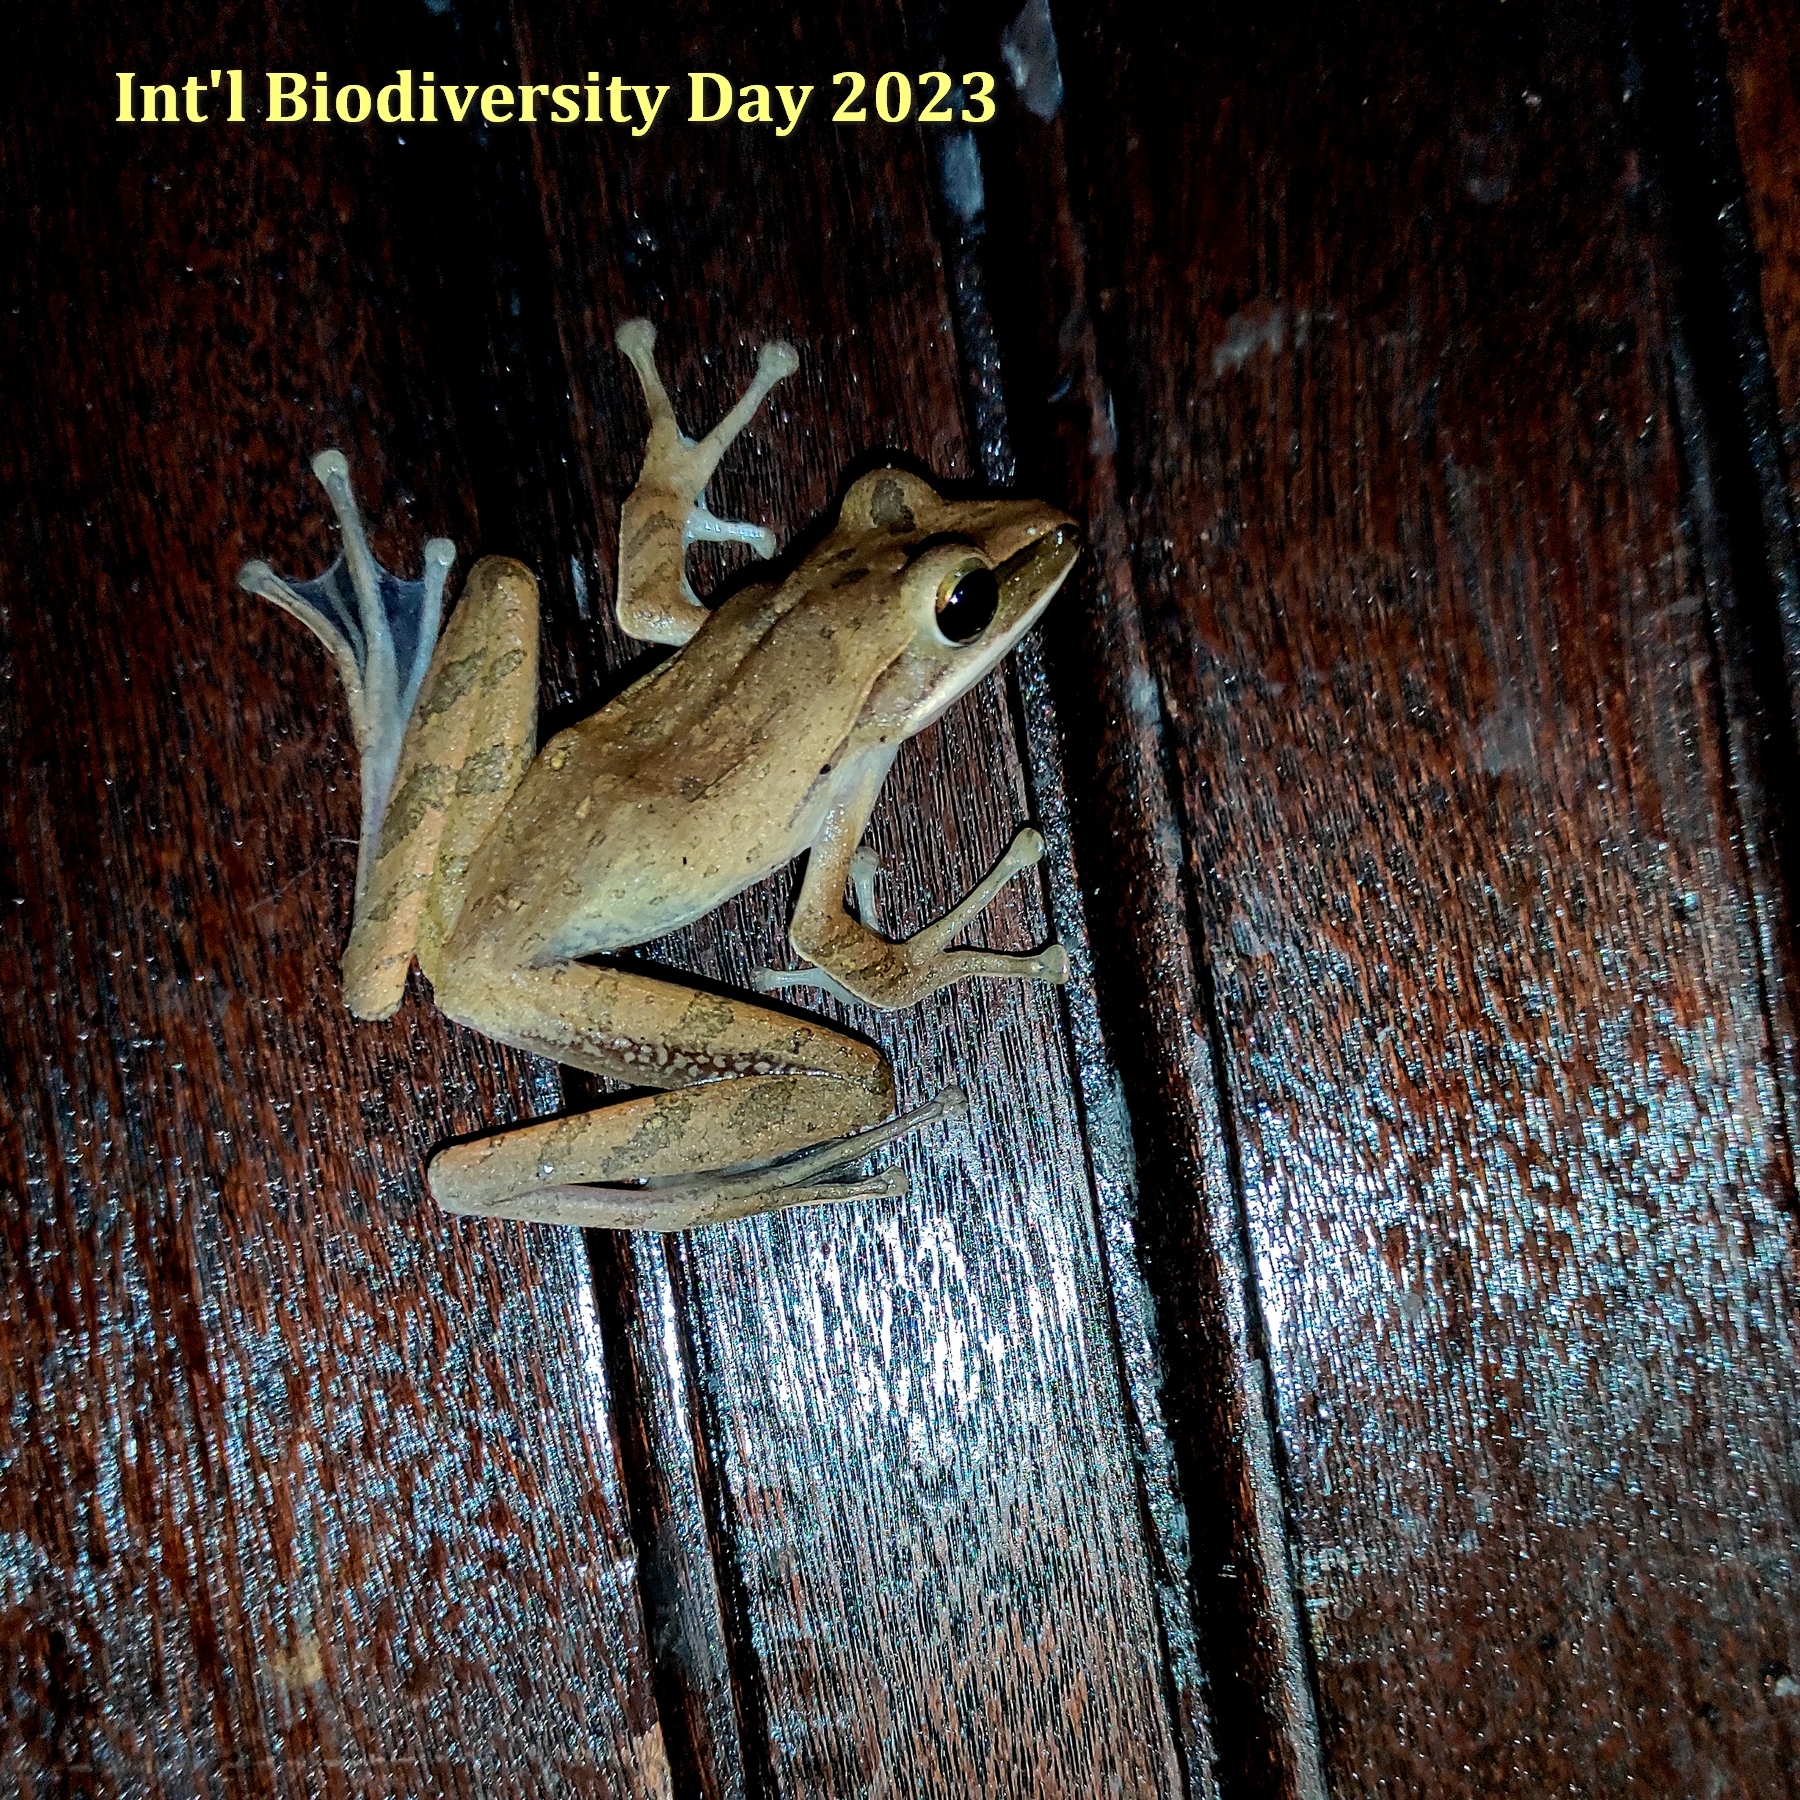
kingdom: Animalia
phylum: Chordata
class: Amphibia
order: Anura
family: Rhacophoridae
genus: Polypedates
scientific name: Polypedates leucomystax
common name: Common tree frog/four-lined tree frog
